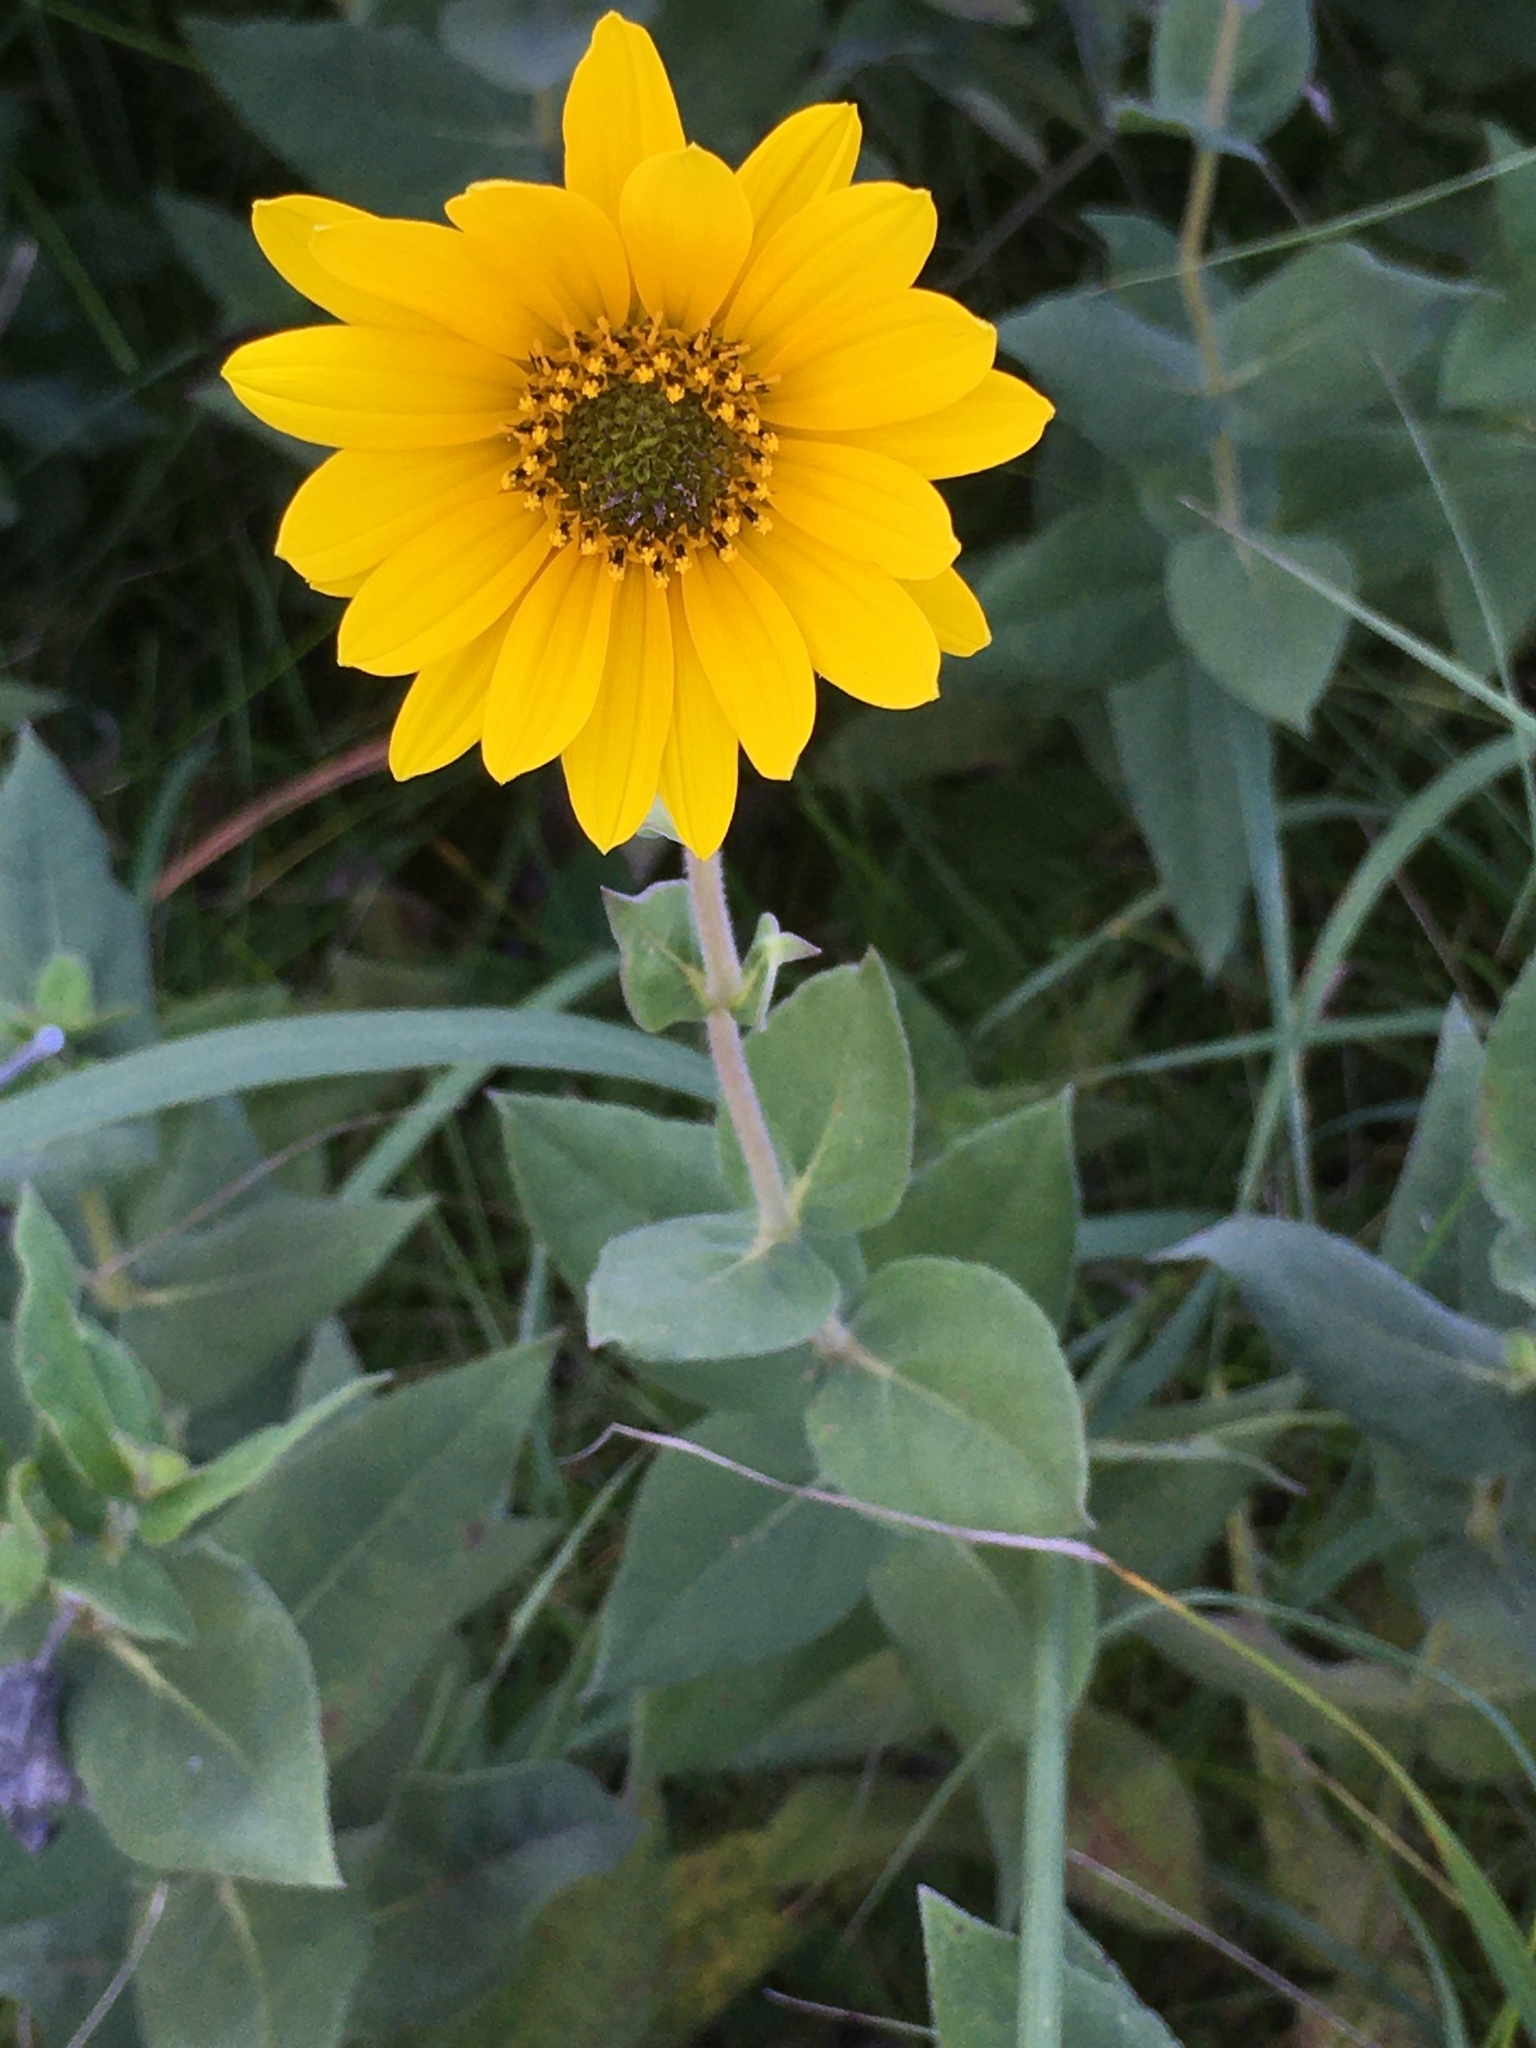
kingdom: Plantae
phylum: Tracheophyta
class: Magnoliopsida
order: Asterales
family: Asteraceae
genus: Helianthus
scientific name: Helianthus mollis
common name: Ashy sunflower
